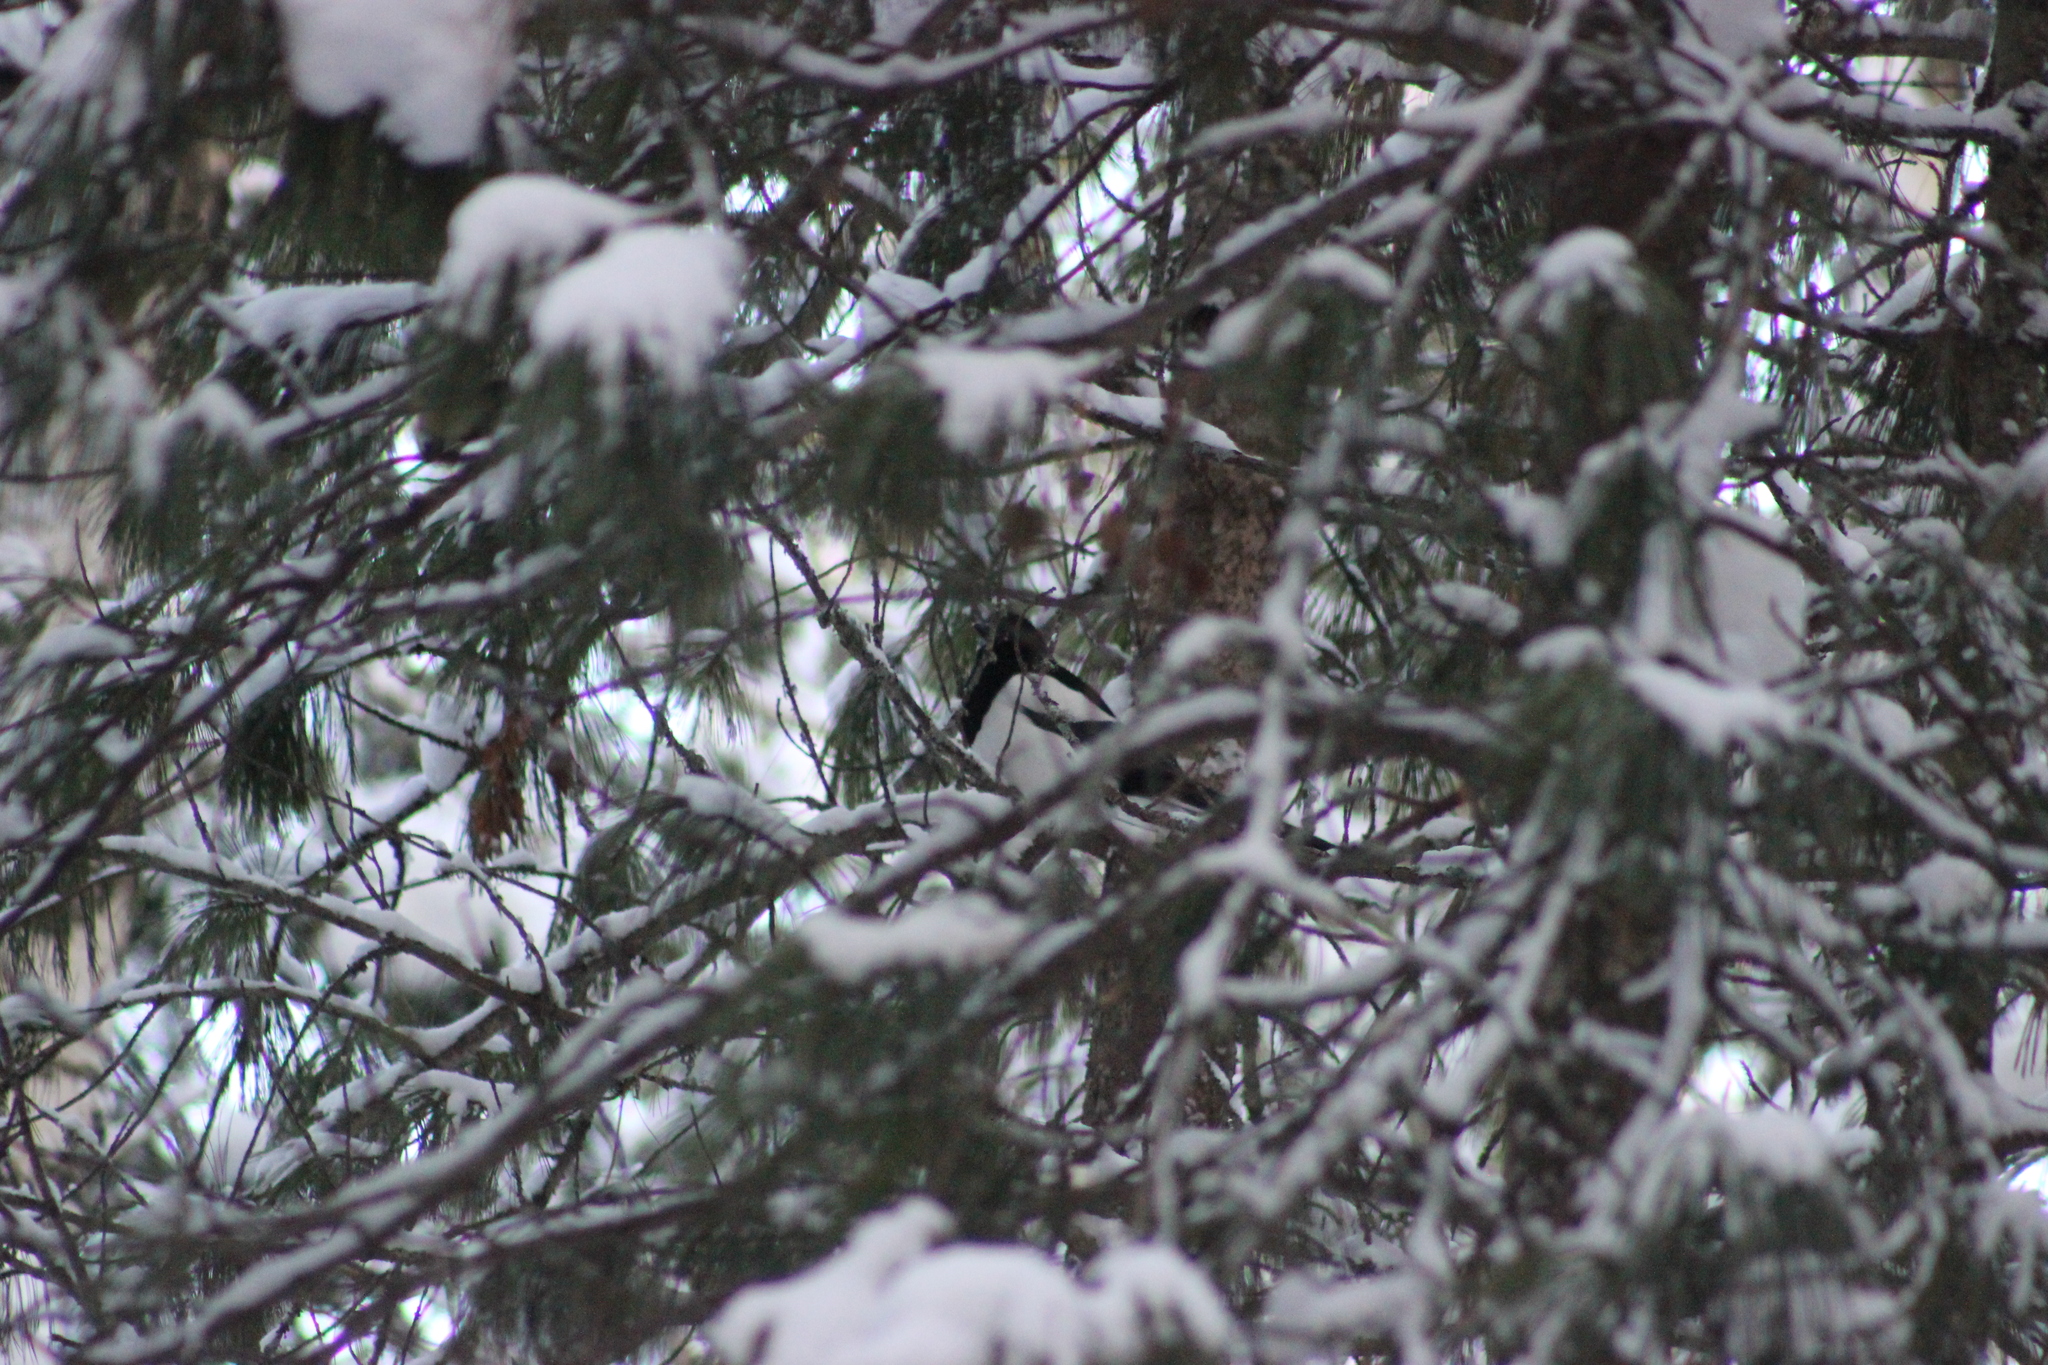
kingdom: Animalia
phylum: Chordata
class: Aves
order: Passeriformes
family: Corvidae
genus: Pica
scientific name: Pica pica
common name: Eurasian magpie
